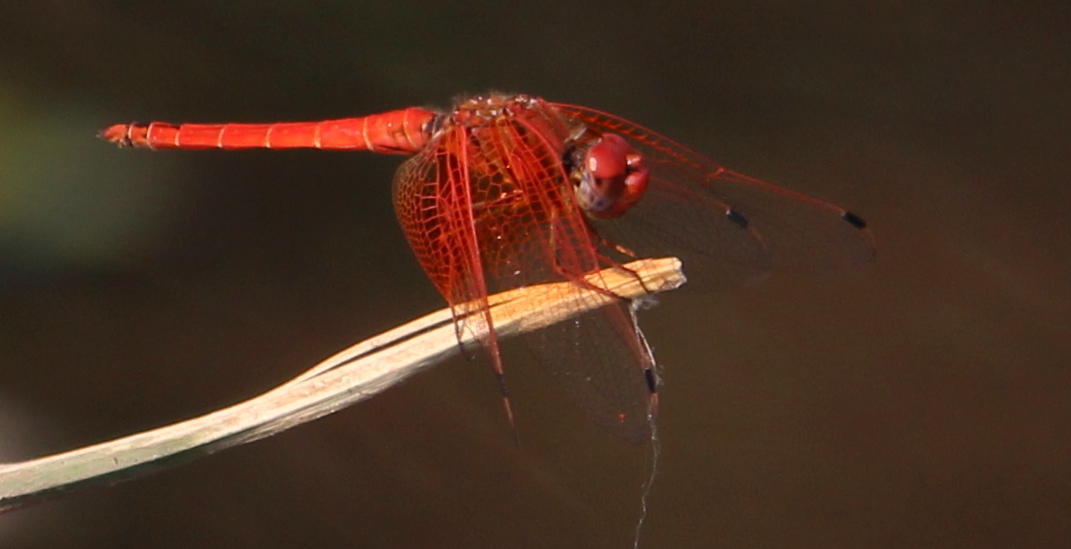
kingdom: Animalia
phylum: Arthropoda
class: Insecta
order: Odonata
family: Libellulidae
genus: Trithemis
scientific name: Trithemis kirbyi
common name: Kirby's dropwing
